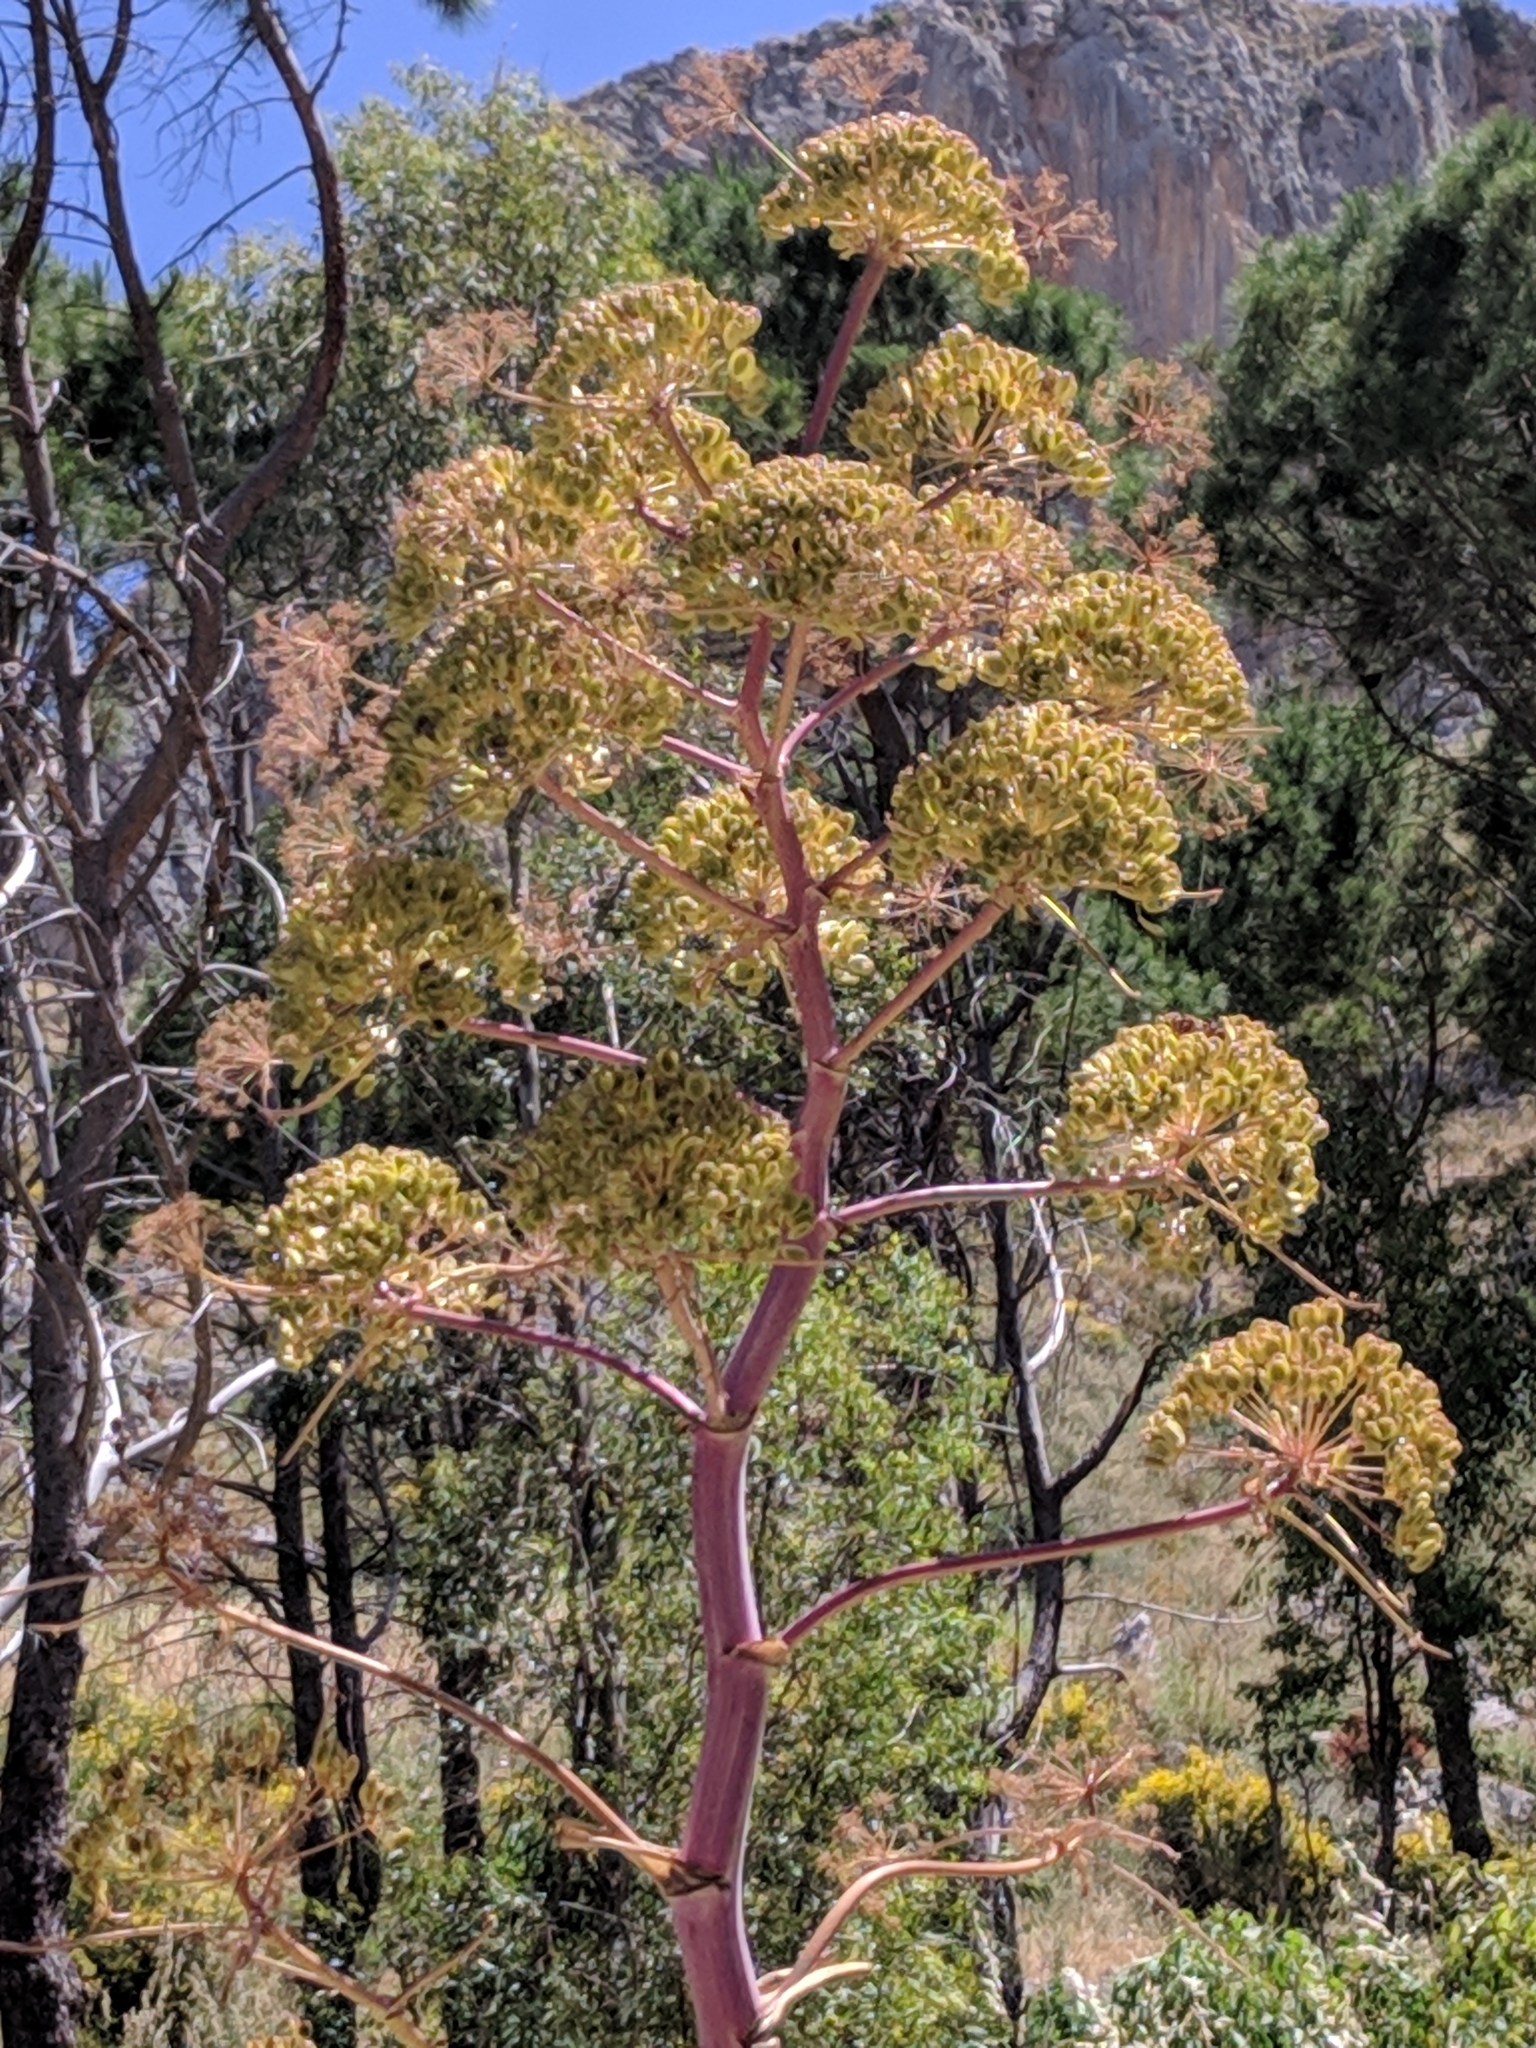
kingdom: Plantae
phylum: Tracheophyta
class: Magnoliopsida
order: Apiales
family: Apiaceae
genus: Ferula
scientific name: Ferula communis
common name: Giant fennel
